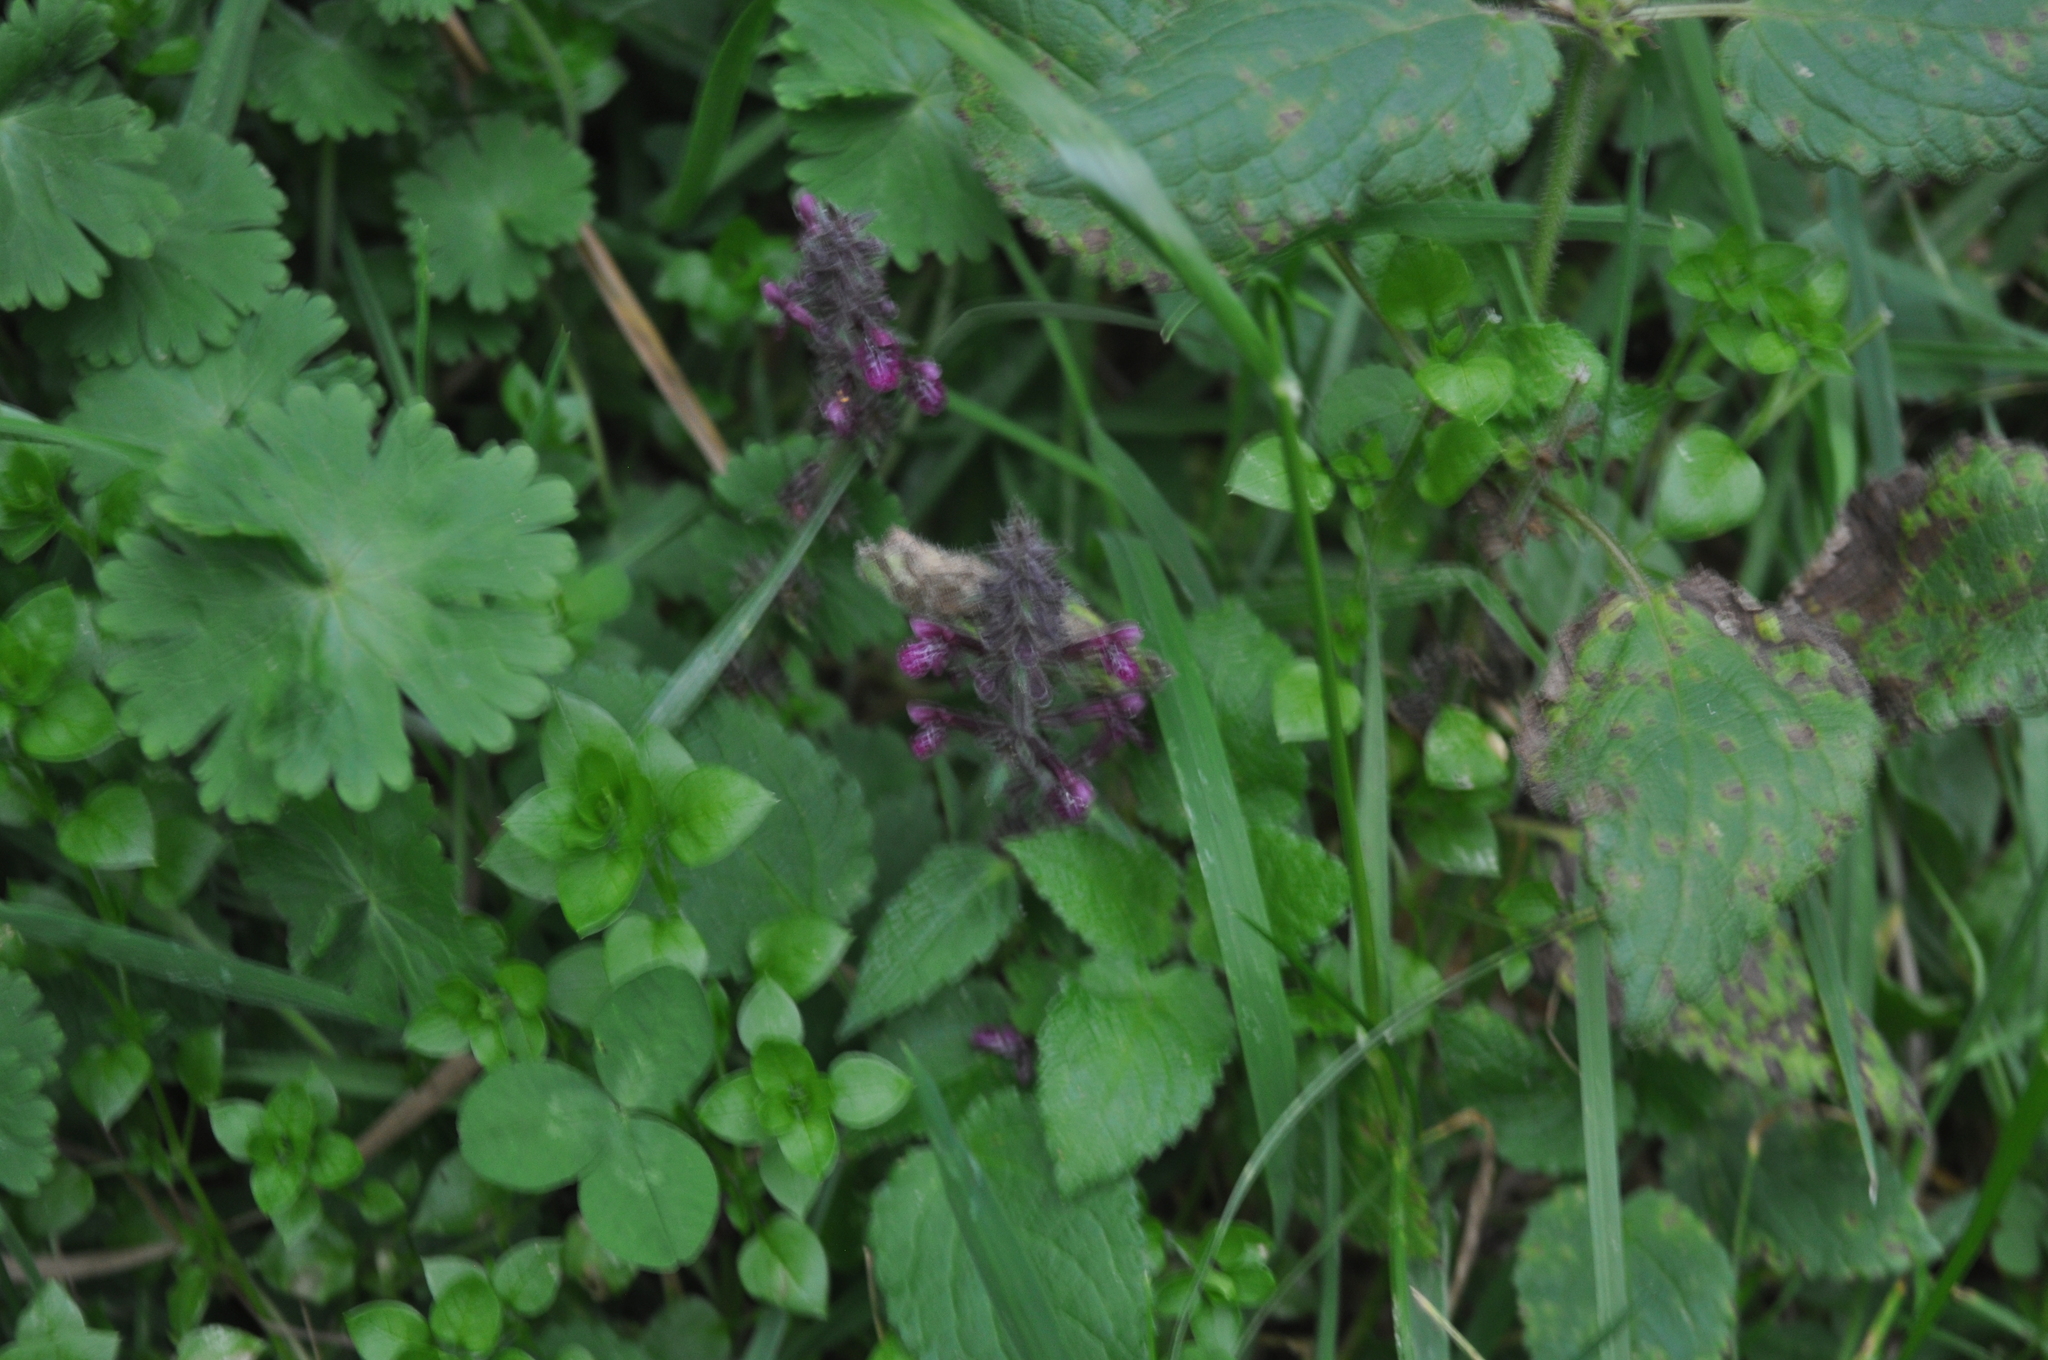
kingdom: Plantae
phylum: Tracheophyta
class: Magnoliopsida
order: Lamiales
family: Lamiaceae
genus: Stachys
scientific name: Stachys sylvatica
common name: Hedge woundwort
